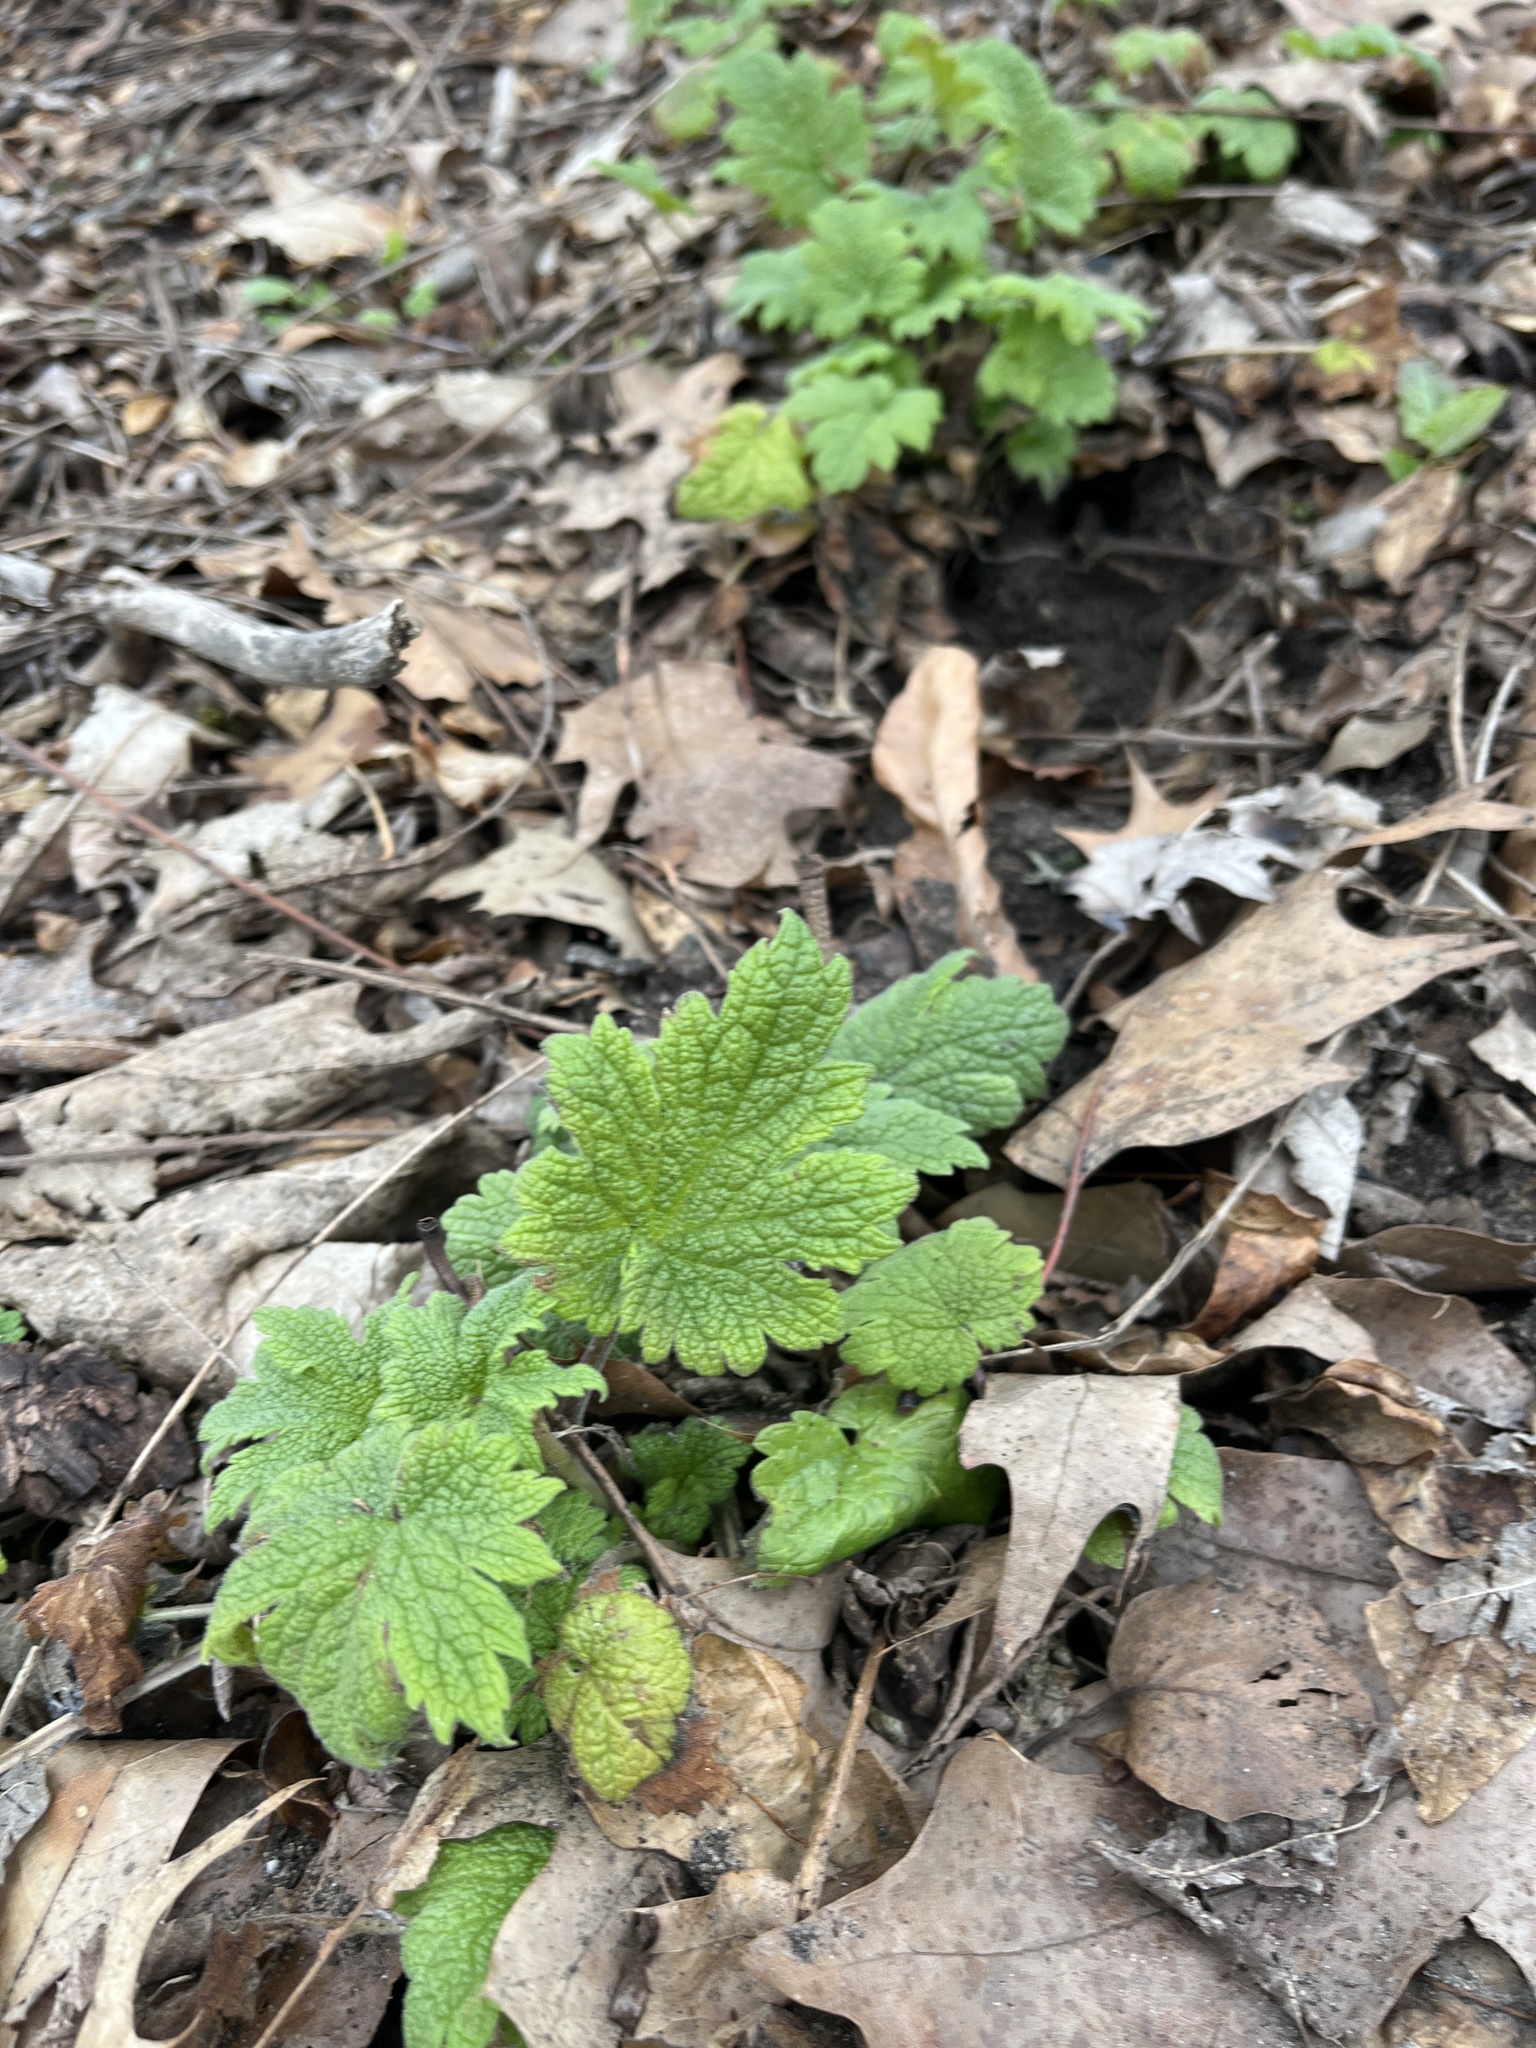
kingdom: Plantae
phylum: Tracheophyta
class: Magnoliopsida
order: Lamiales
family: Lamiaceae
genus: Leonurus
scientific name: Leonurus cardiaca
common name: Motherwort
